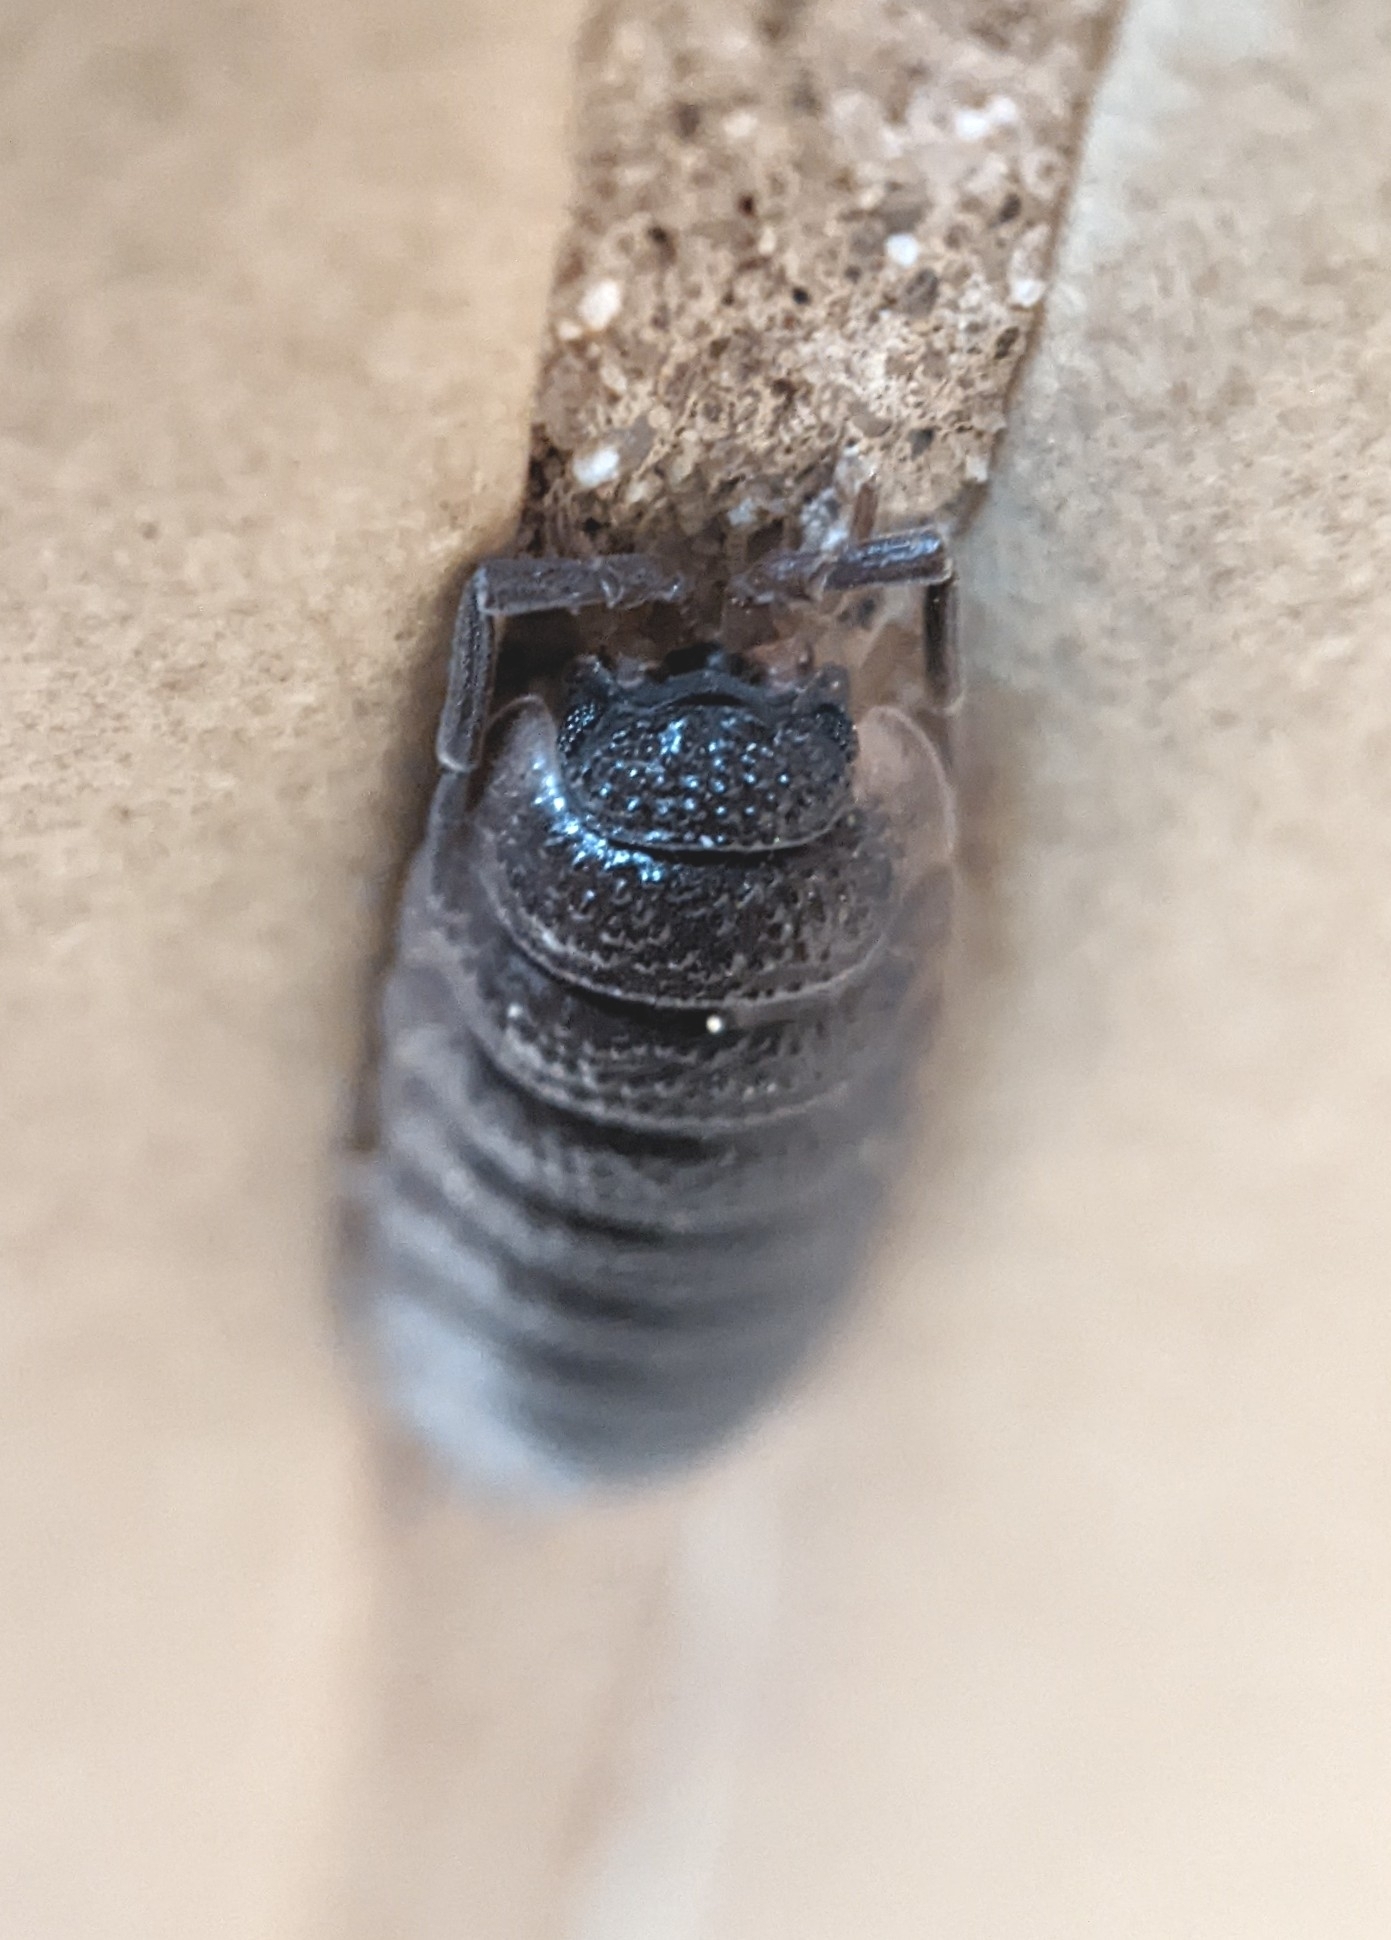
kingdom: Animalia
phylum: Arthropoda
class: Malacostraca
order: Isopoda
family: Porcellionidae
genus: Porcellio
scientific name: Porcellio scaber
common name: Common rough woodlouse
